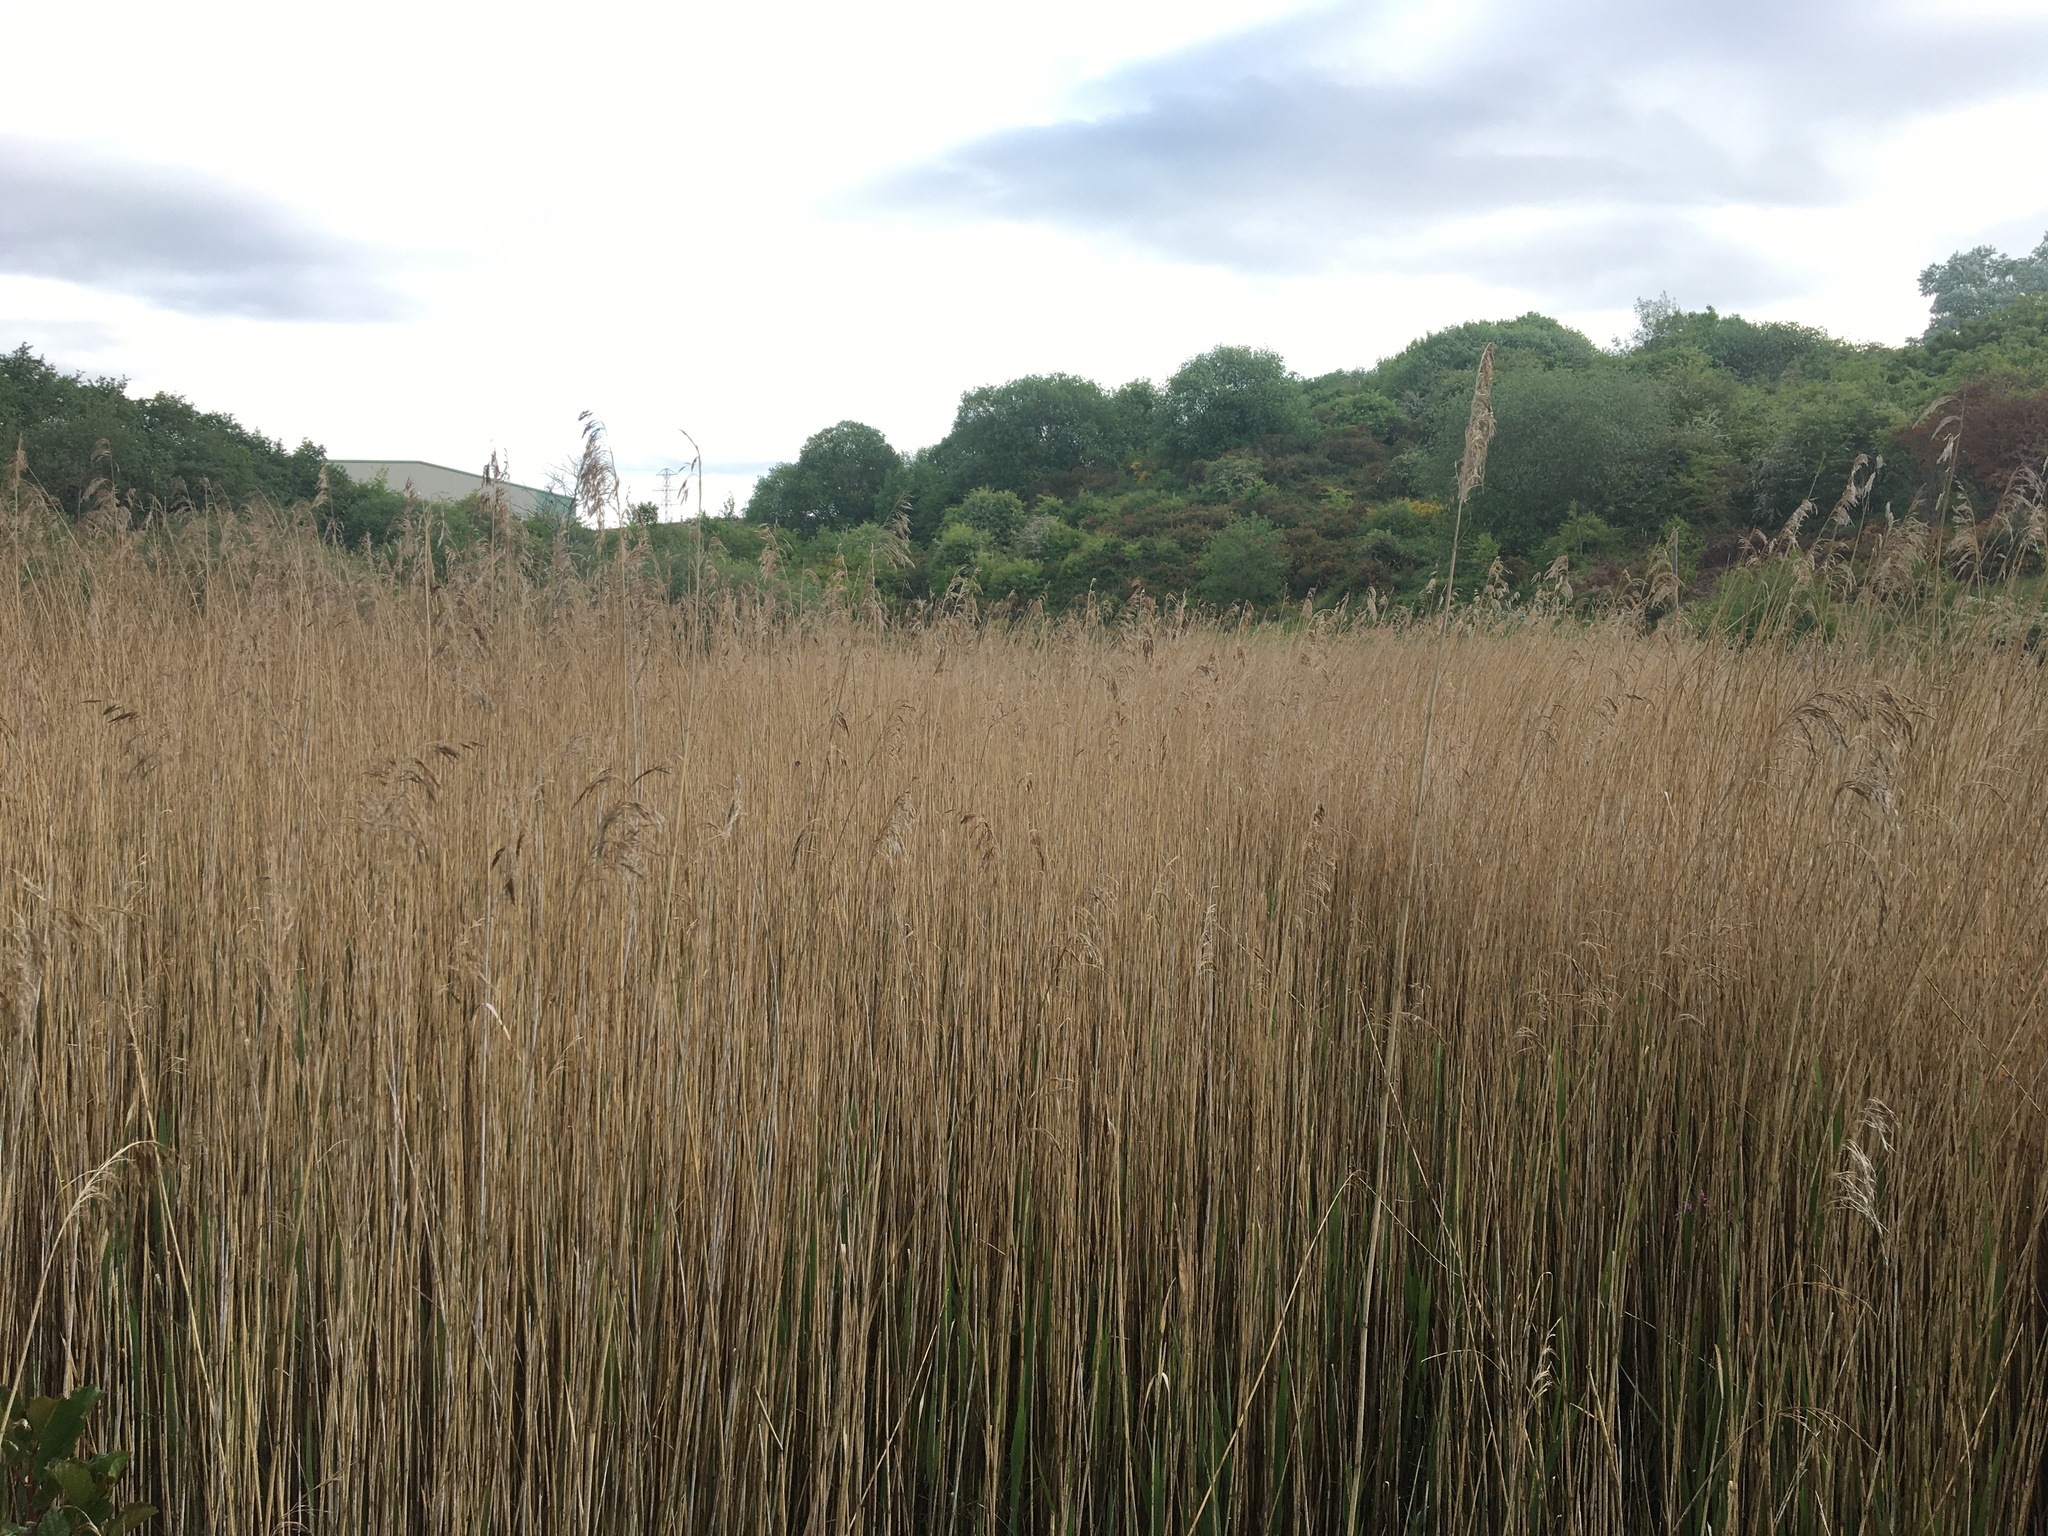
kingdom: Plantae
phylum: Tracheophyta
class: Liliopsida
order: Poales
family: Poaceae
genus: Phragmites
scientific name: Phragmites australis
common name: Common reed
